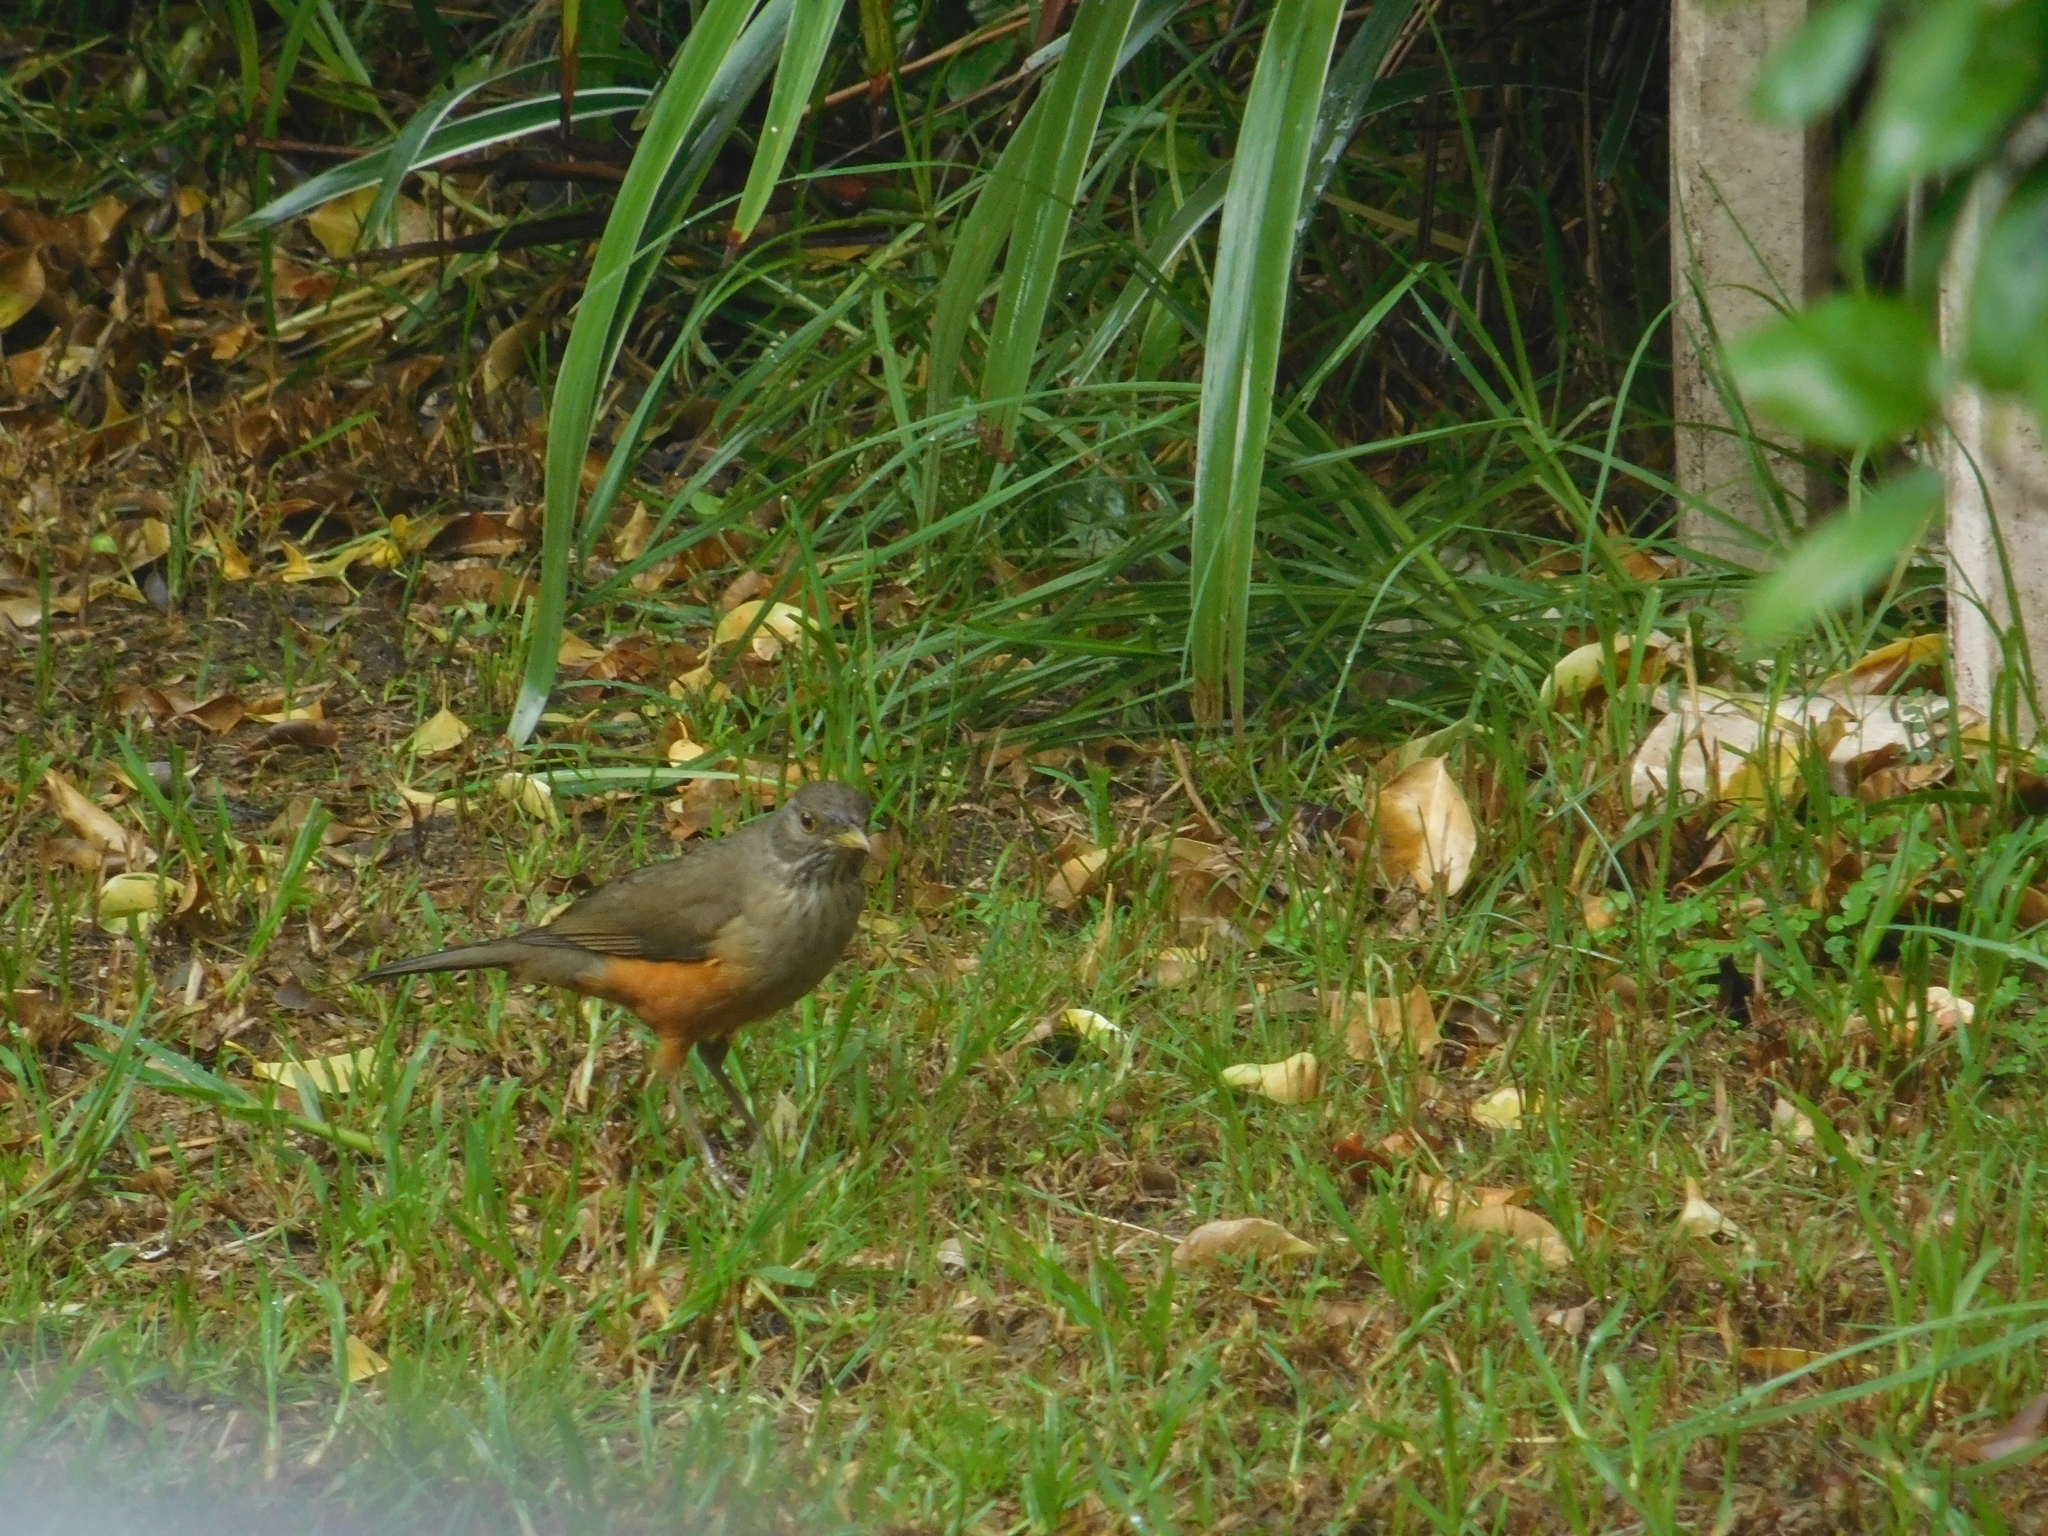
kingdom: Animalia
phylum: Chordata
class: Aves
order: Passeriformes
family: Turdidae
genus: Turdus
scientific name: Turdus rufiventris
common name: Rufous-bellied thrush
